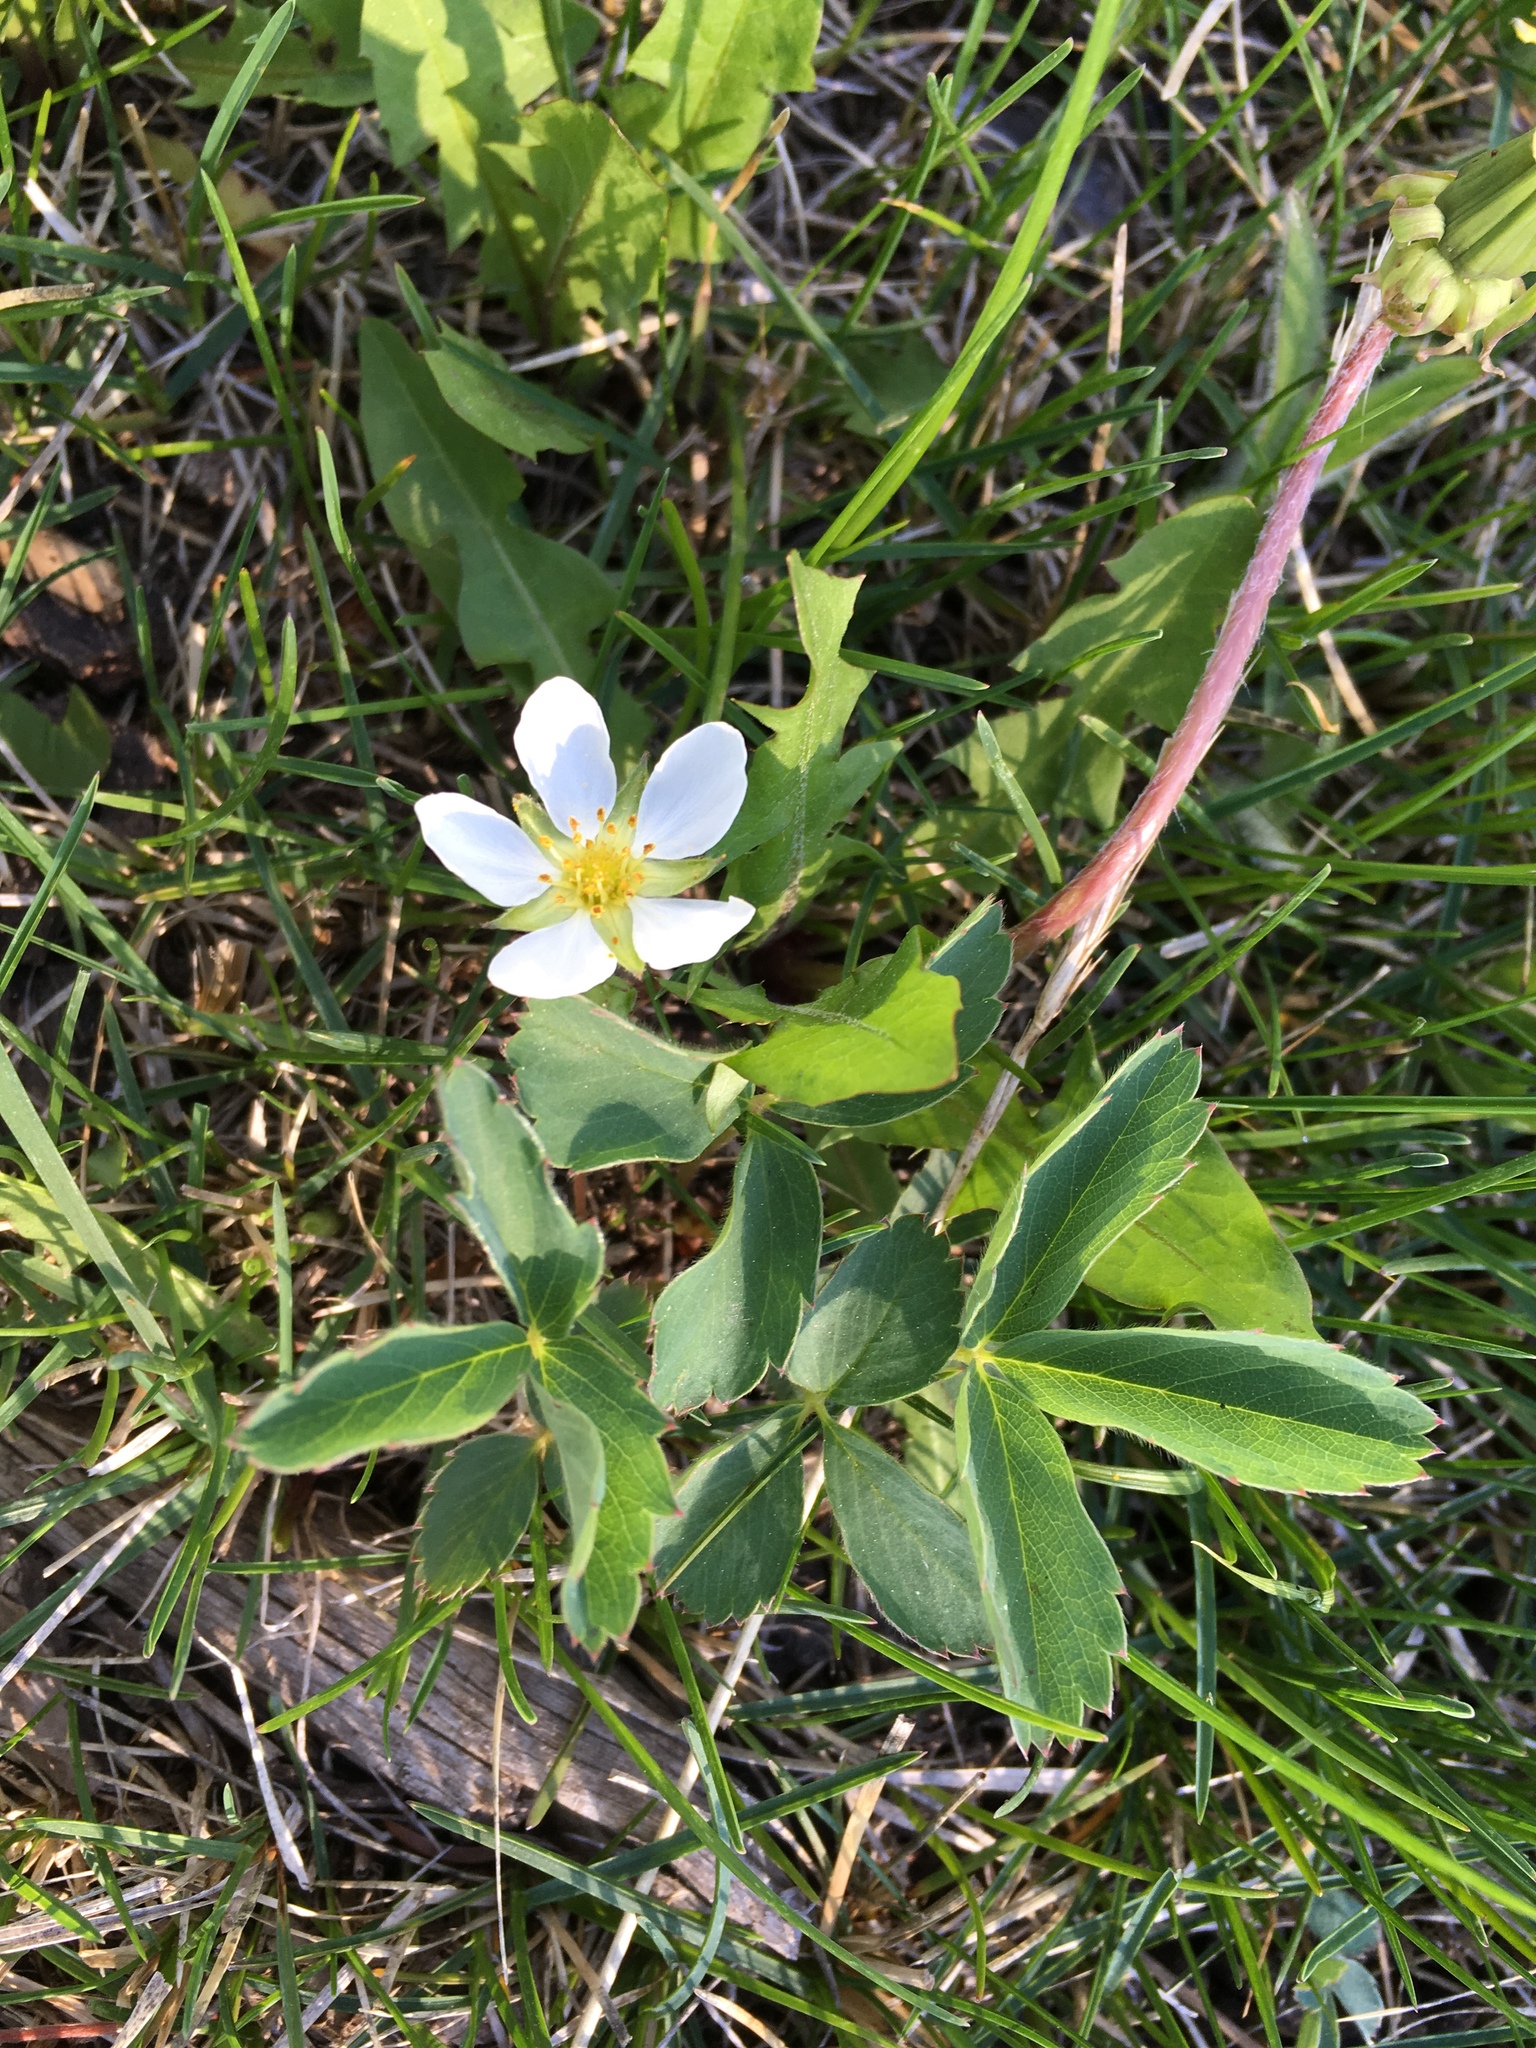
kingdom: Plantae
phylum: Tracheophyta
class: Magnoliopsida
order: Rosales
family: Rosaceae
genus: Fragaria
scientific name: Fragaria virginiana
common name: Thickleaved wild strawberry
